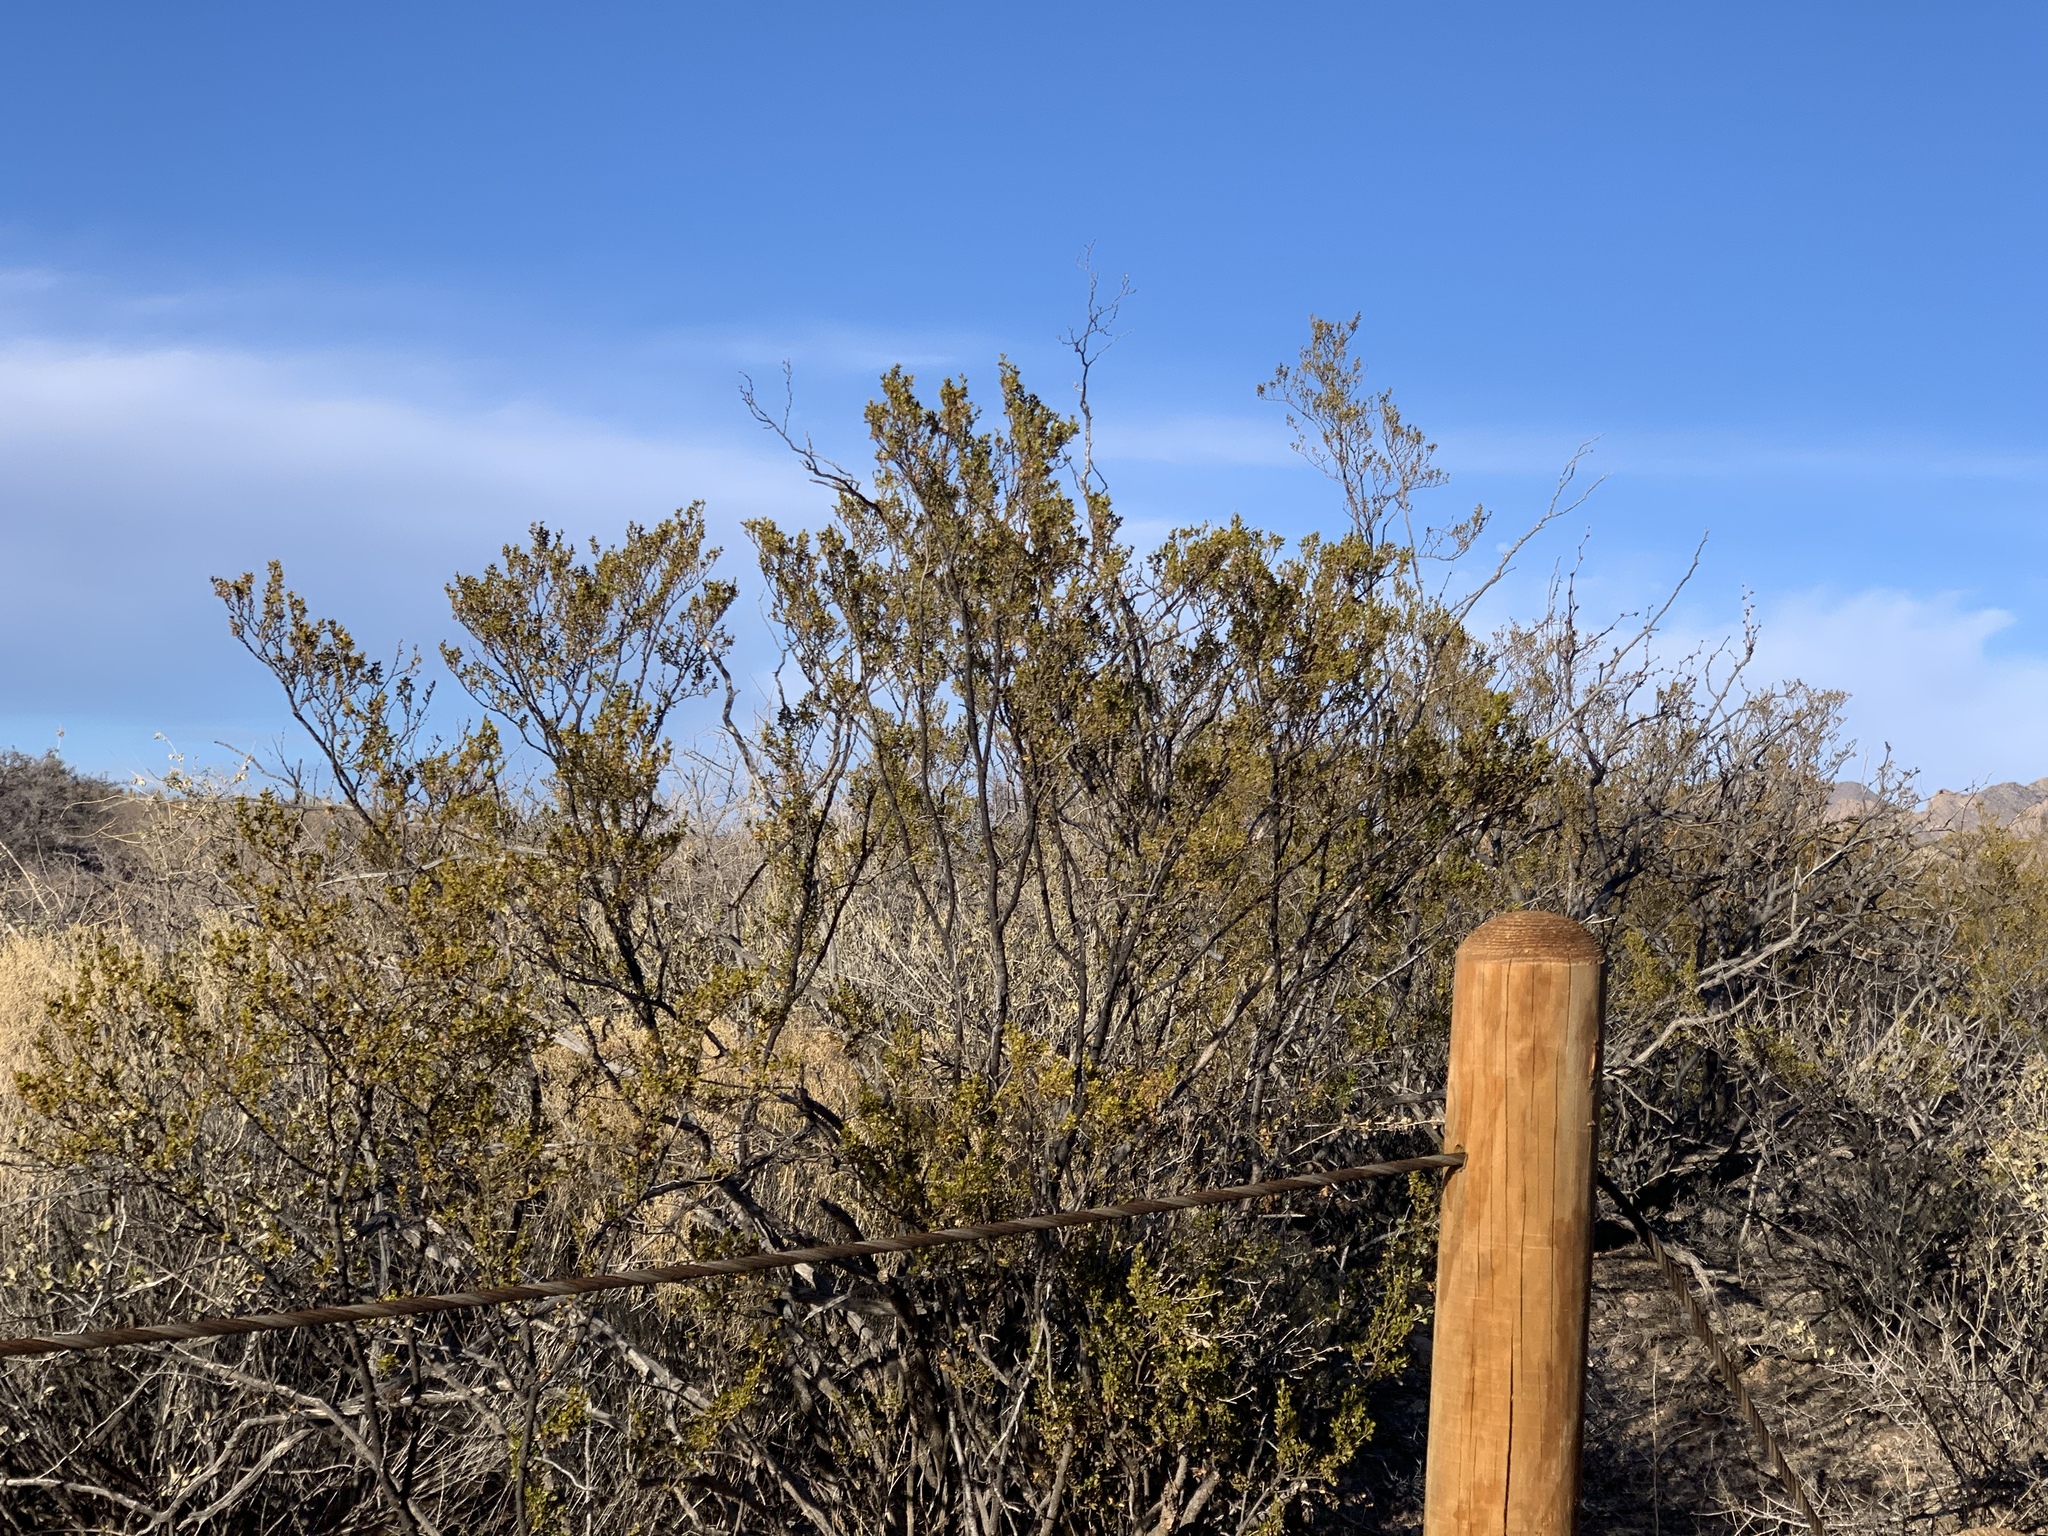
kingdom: Plantae
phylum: Tracheophyta
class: Magnoliopsida
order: Zygophyllales
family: Zygophyllaceae
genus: Larrea
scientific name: Larrea tridentata
